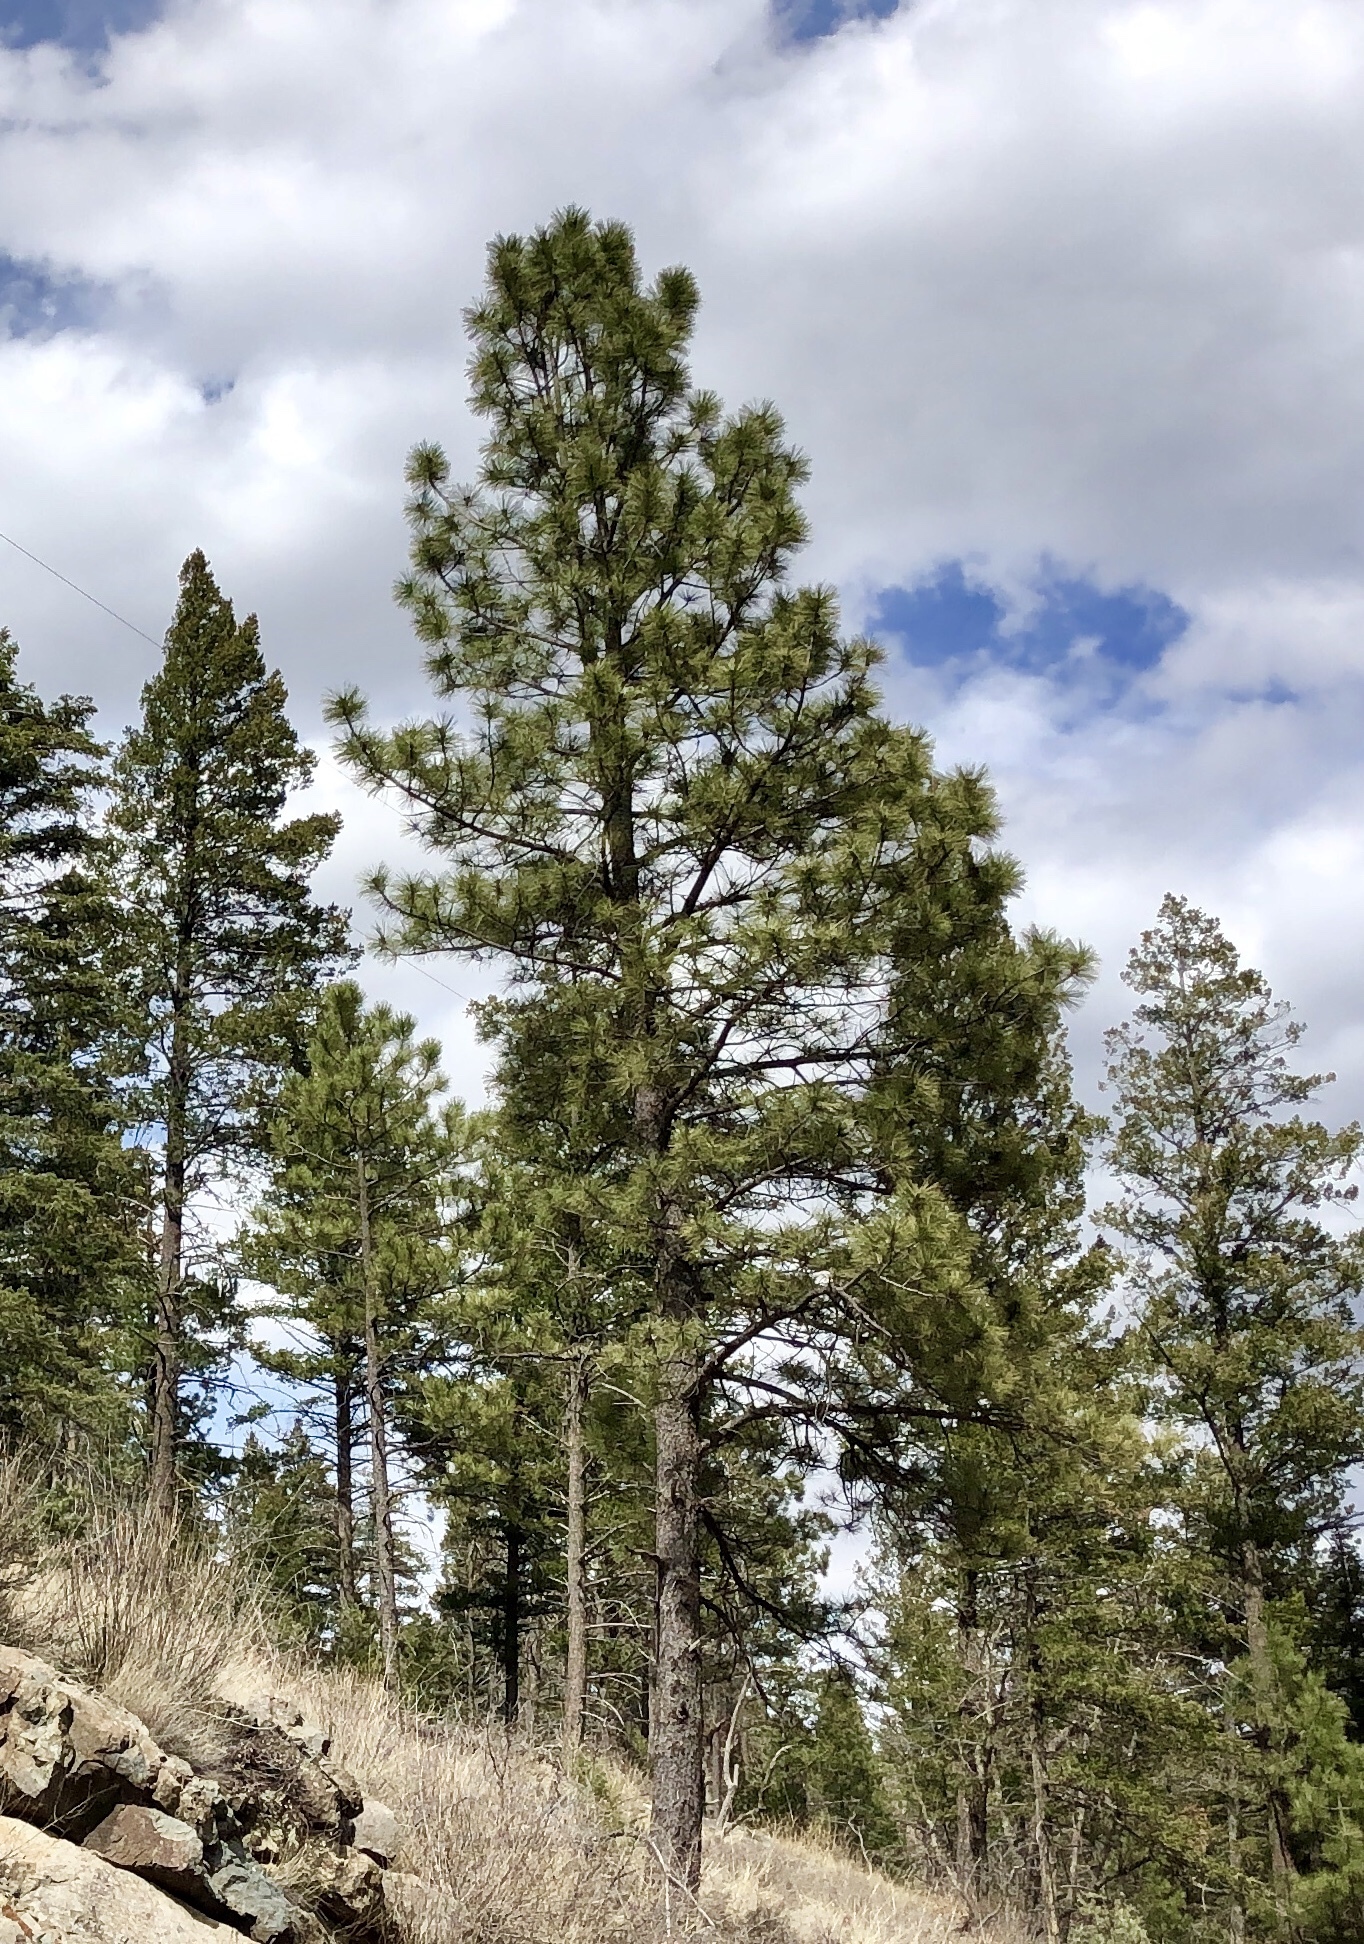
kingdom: Plantae
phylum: Tracheophyta
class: Pinopsida
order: Pinales
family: Pinaceae
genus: Pinus
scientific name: Pinus ponderosa
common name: Western yellow-pine
